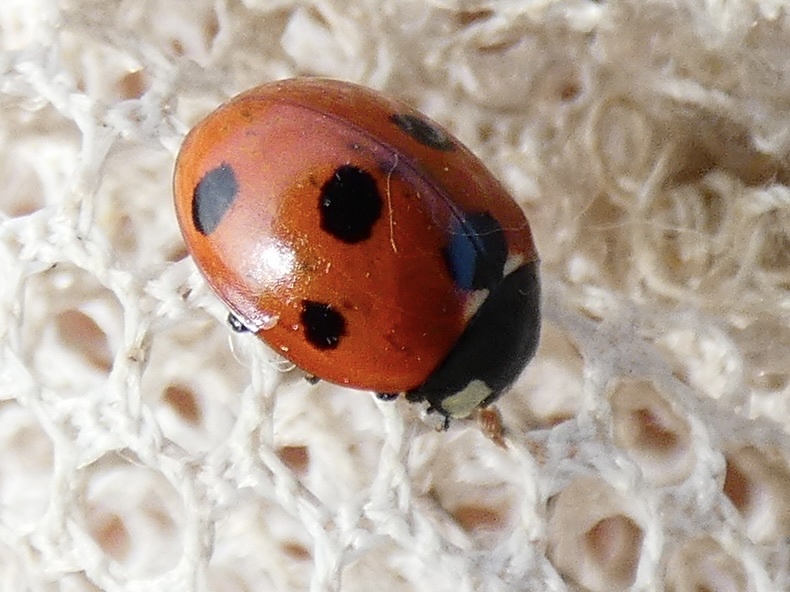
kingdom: Animalia
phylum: Arthropoda
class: Insecta
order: Coleoptera
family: Coccinellidae
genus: Coccinella
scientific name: Coccinella septempunctata
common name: Sevenspotted lady beetle
